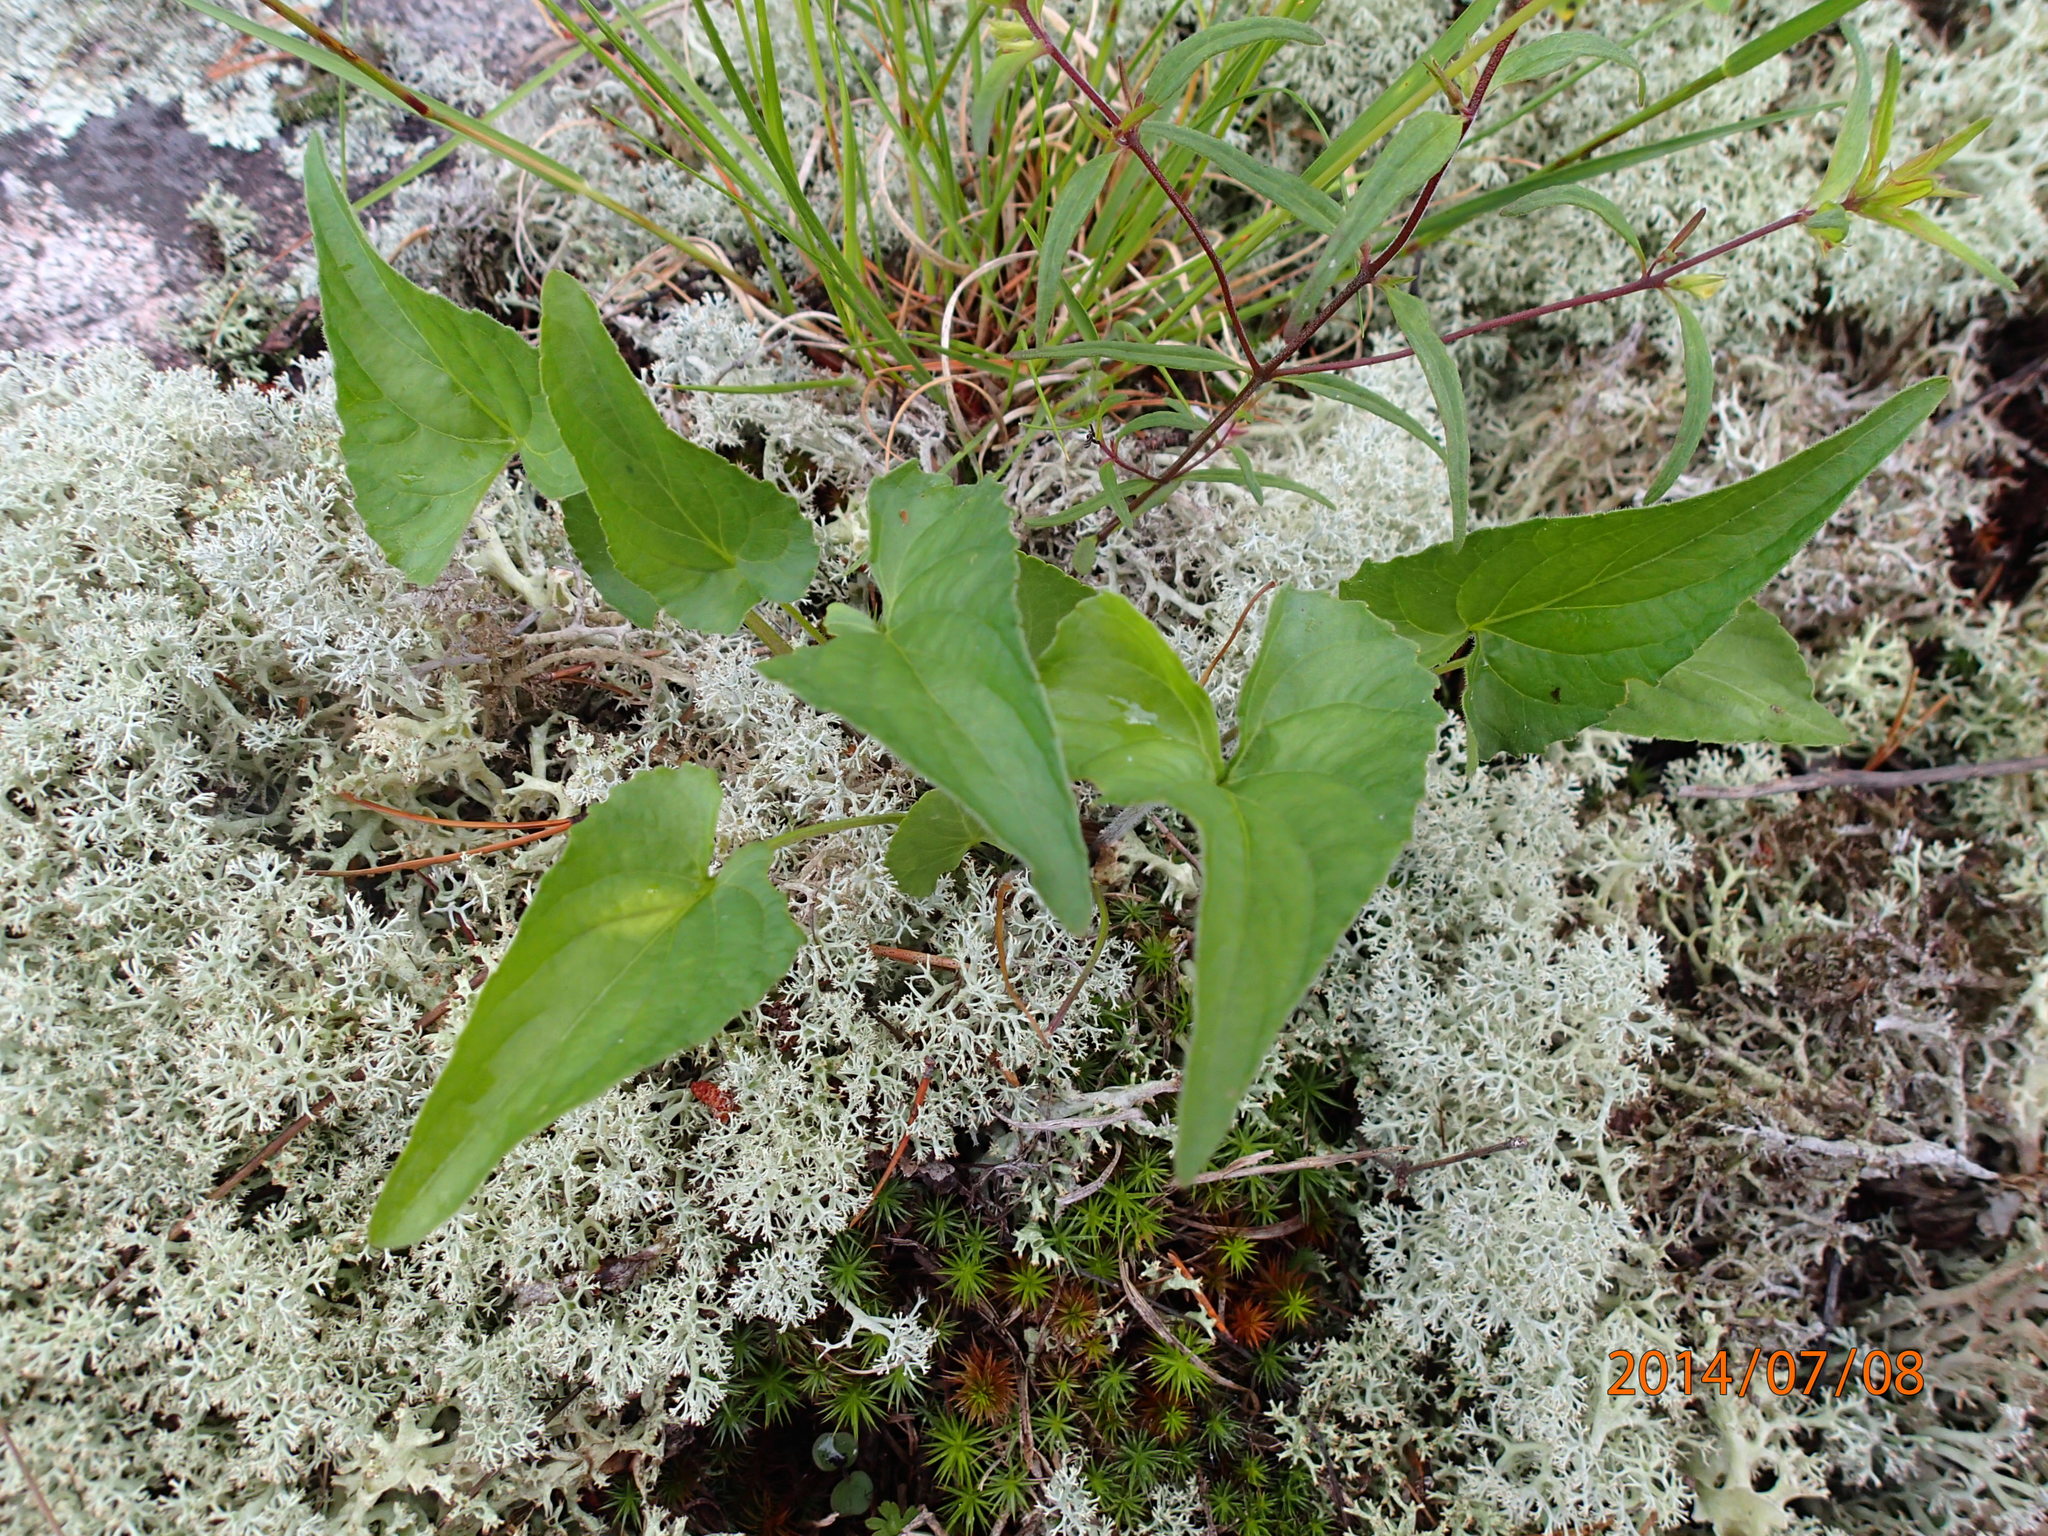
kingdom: Plantae
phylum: Tracheophyta
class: Magnoliopsida
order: Malpighiales
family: Violaceae
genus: Viola
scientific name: Viola novae-angliae
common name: New england blue violet
